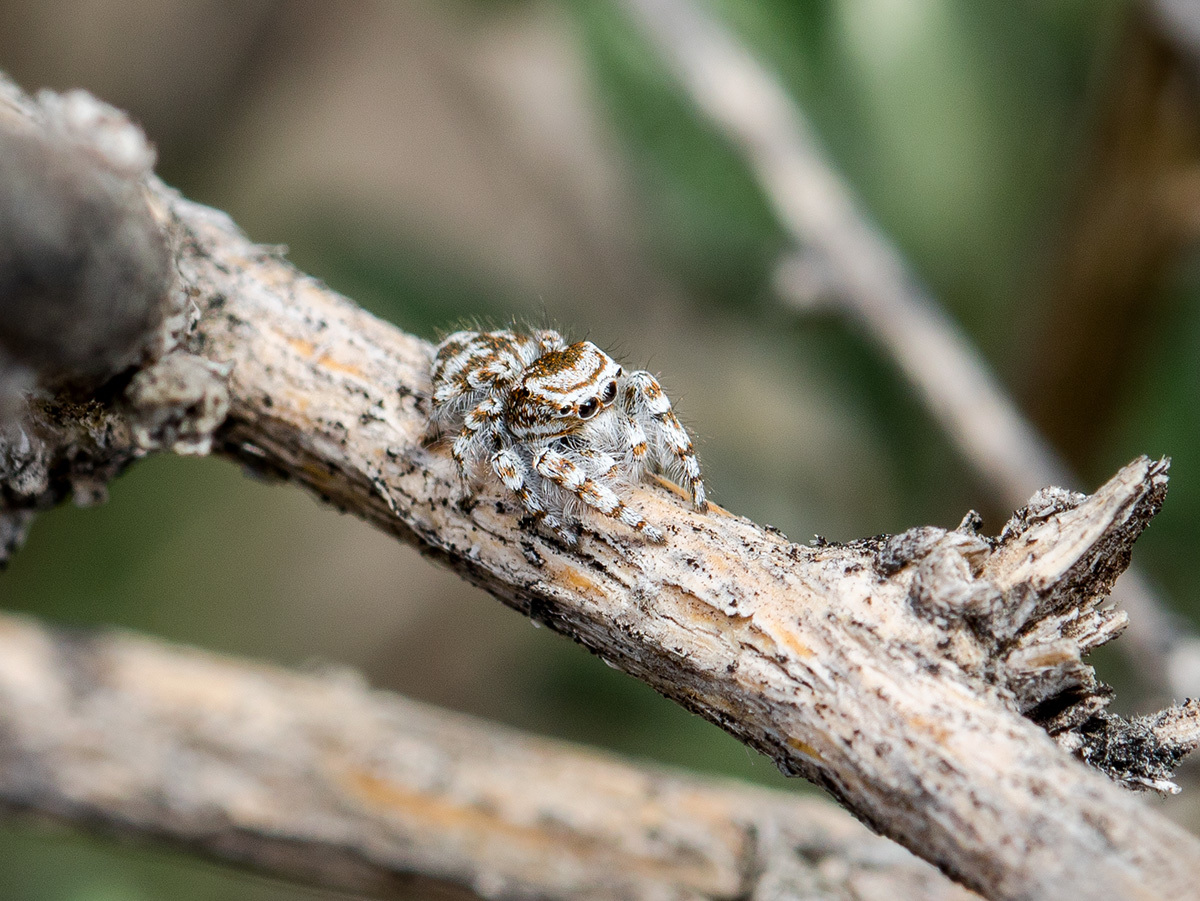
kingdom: Animalia
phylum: Arthropoda
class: Arachnida
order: Araneae
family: Salticidae
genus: Pseudomogrus
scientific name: Pseudomogrus dalaensis
